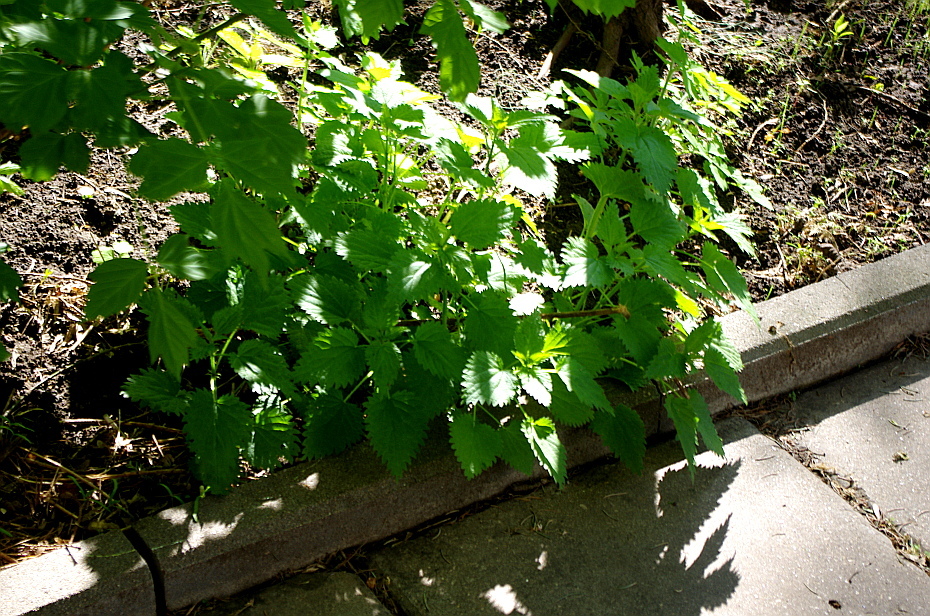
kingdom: Plantae
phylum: Tracheophyta
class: Magnoliopsida
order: Rosales
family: Urticaceae
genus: Urtica
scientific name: Urtica dioica
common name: Common nettle
